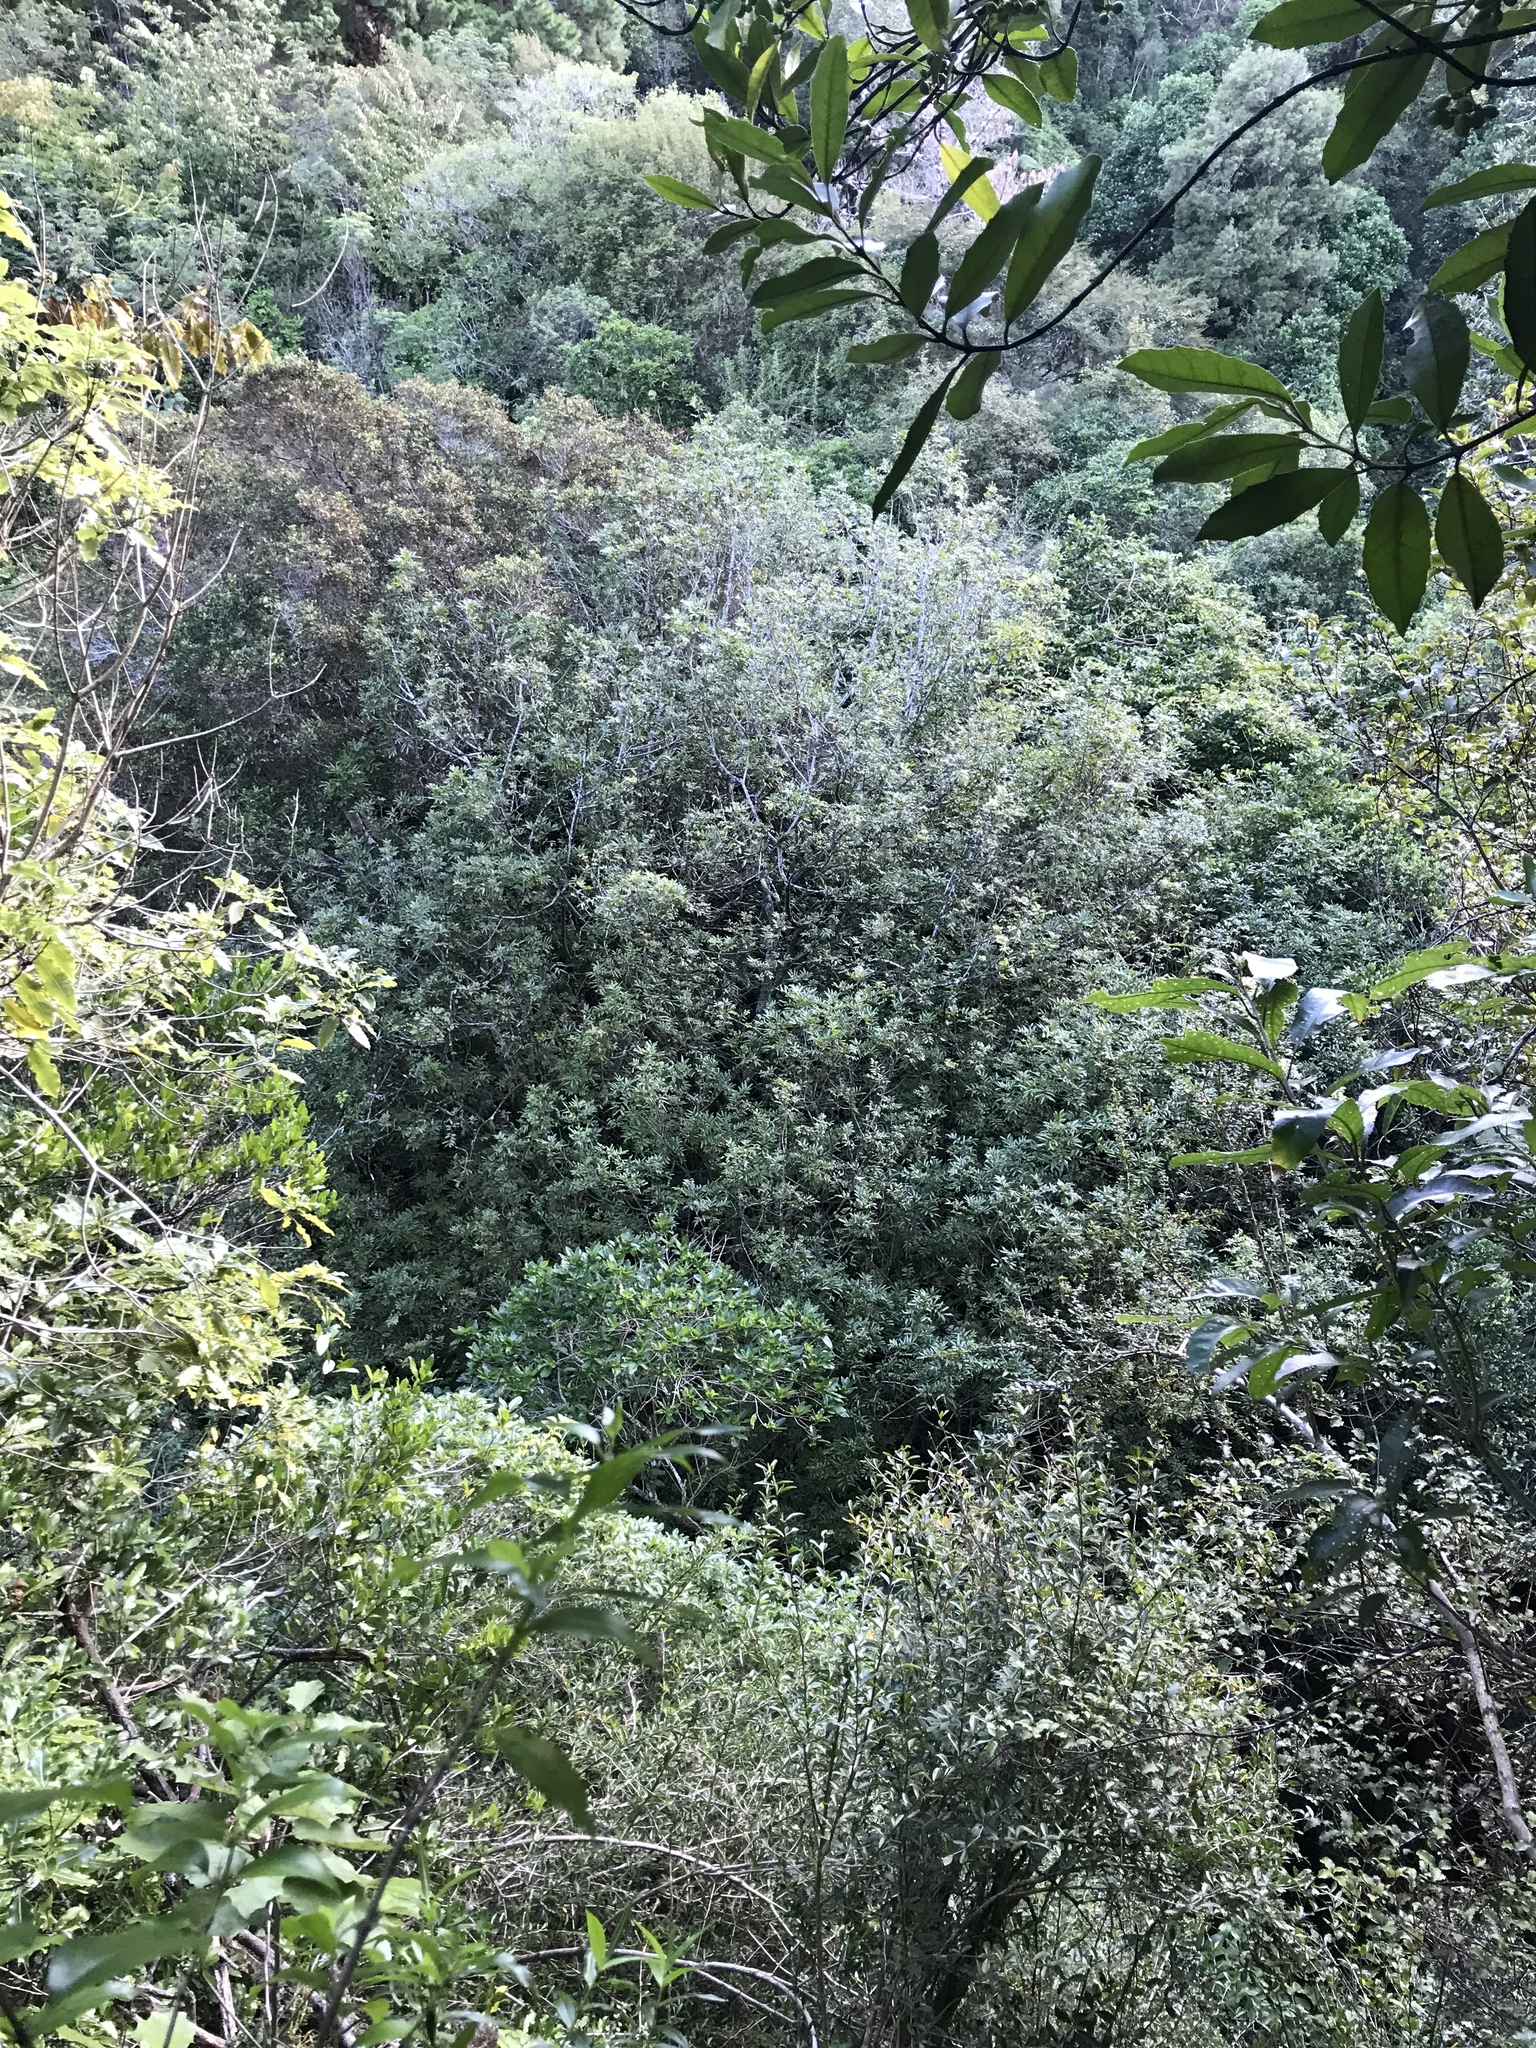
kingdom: Plantae
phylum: Tracheophyta
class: Magnoliopsida
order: Sapindales
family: Sapindaceae
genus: Alectryon
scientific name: Alectryon excelsus
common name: Three kings titoki
